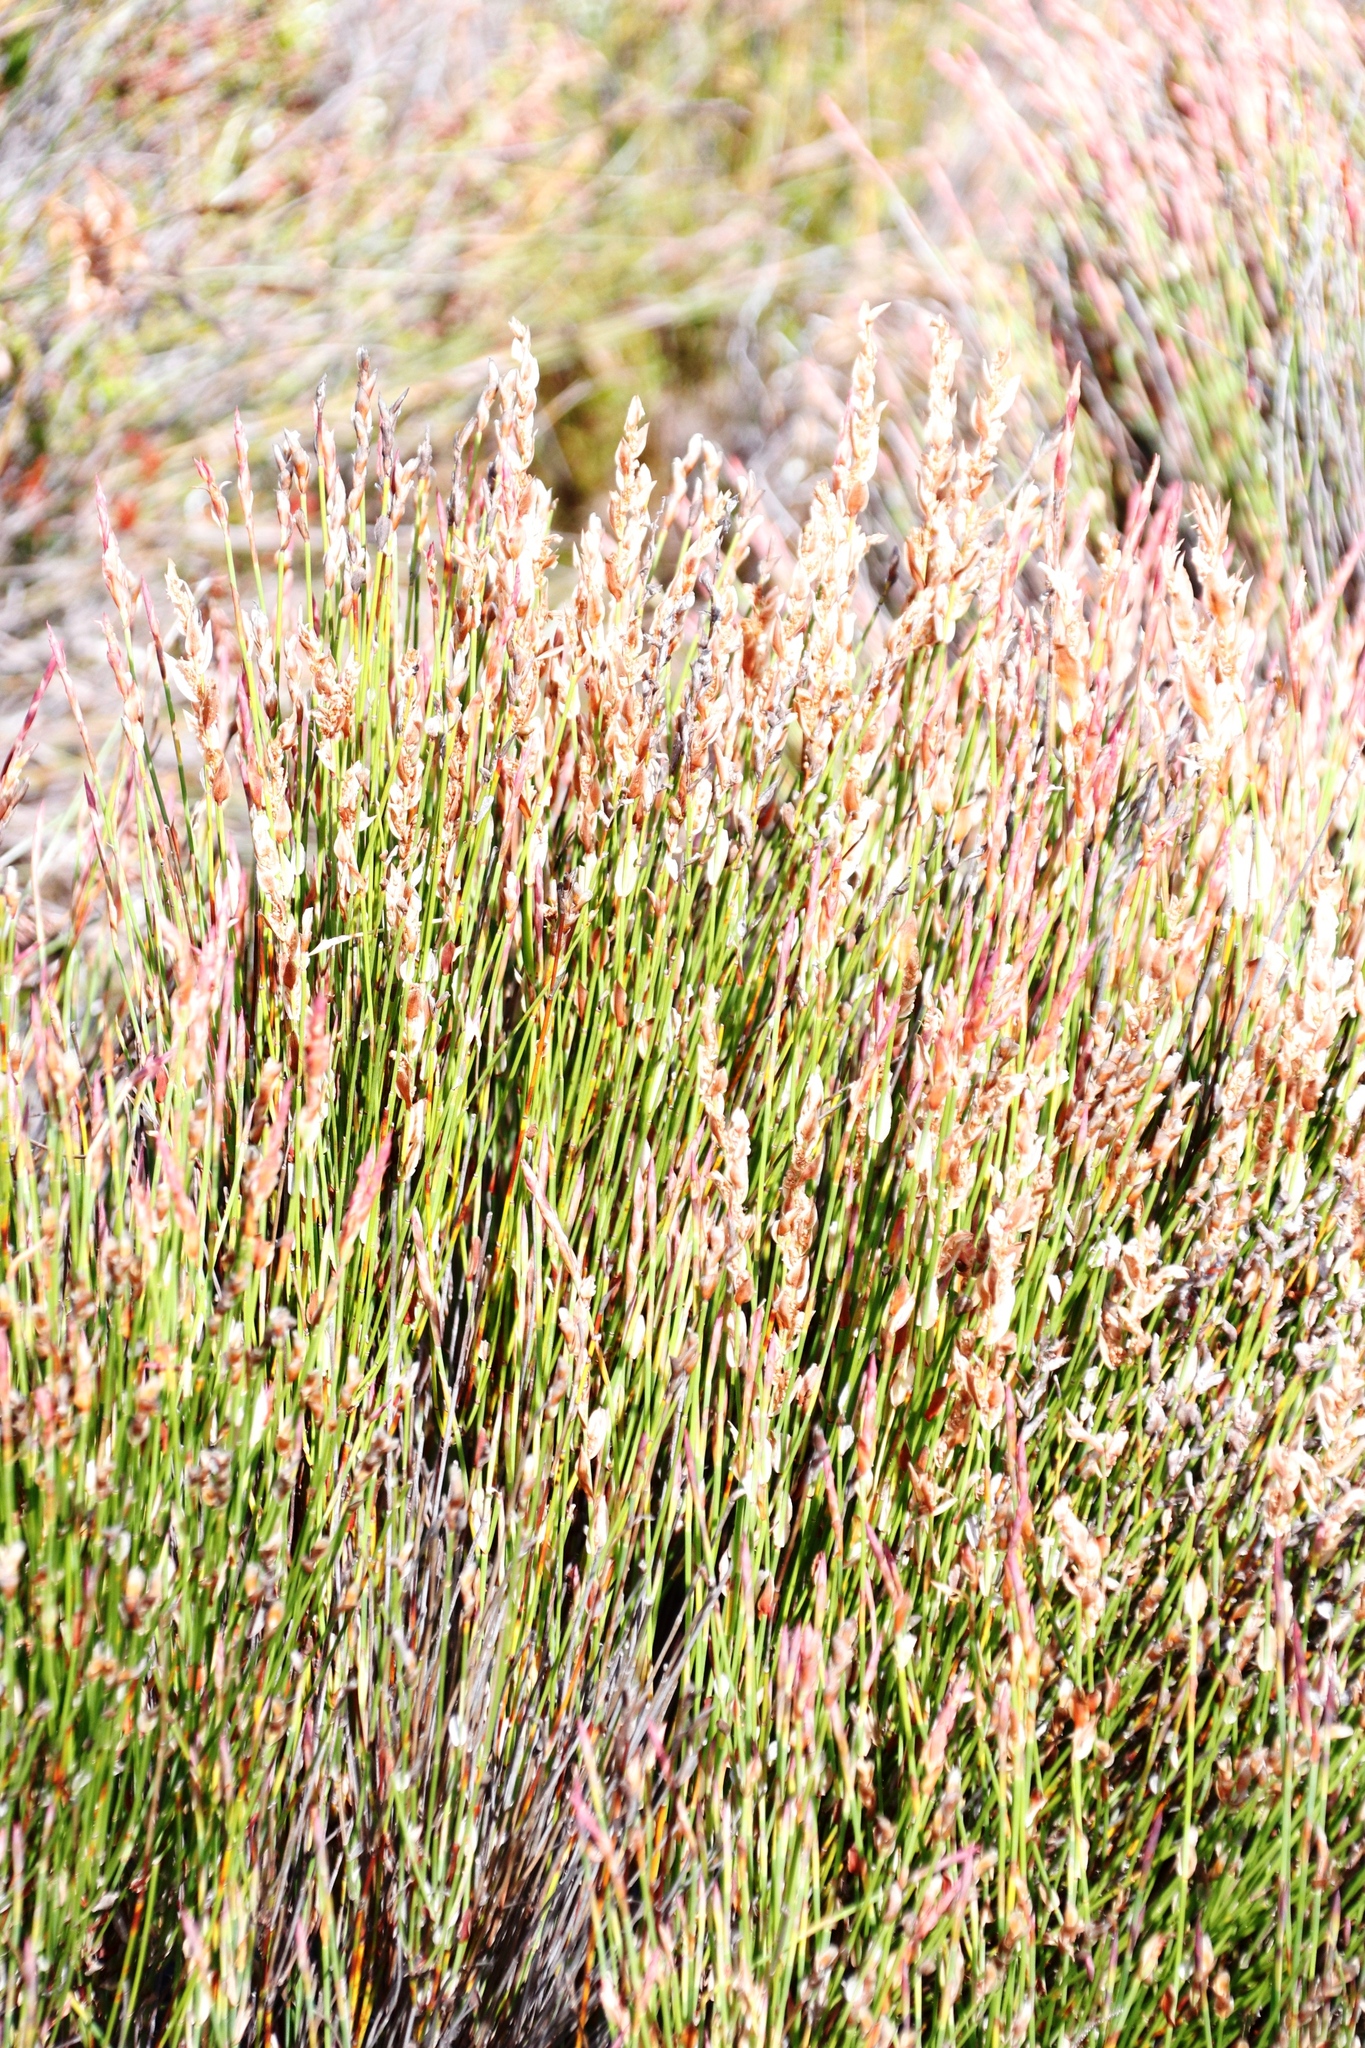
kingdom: Plantae
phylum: Tracheophyta
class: Liliopsida
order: Poales
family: Restionaceae
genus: Elegia
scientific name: Elegia stipularis
